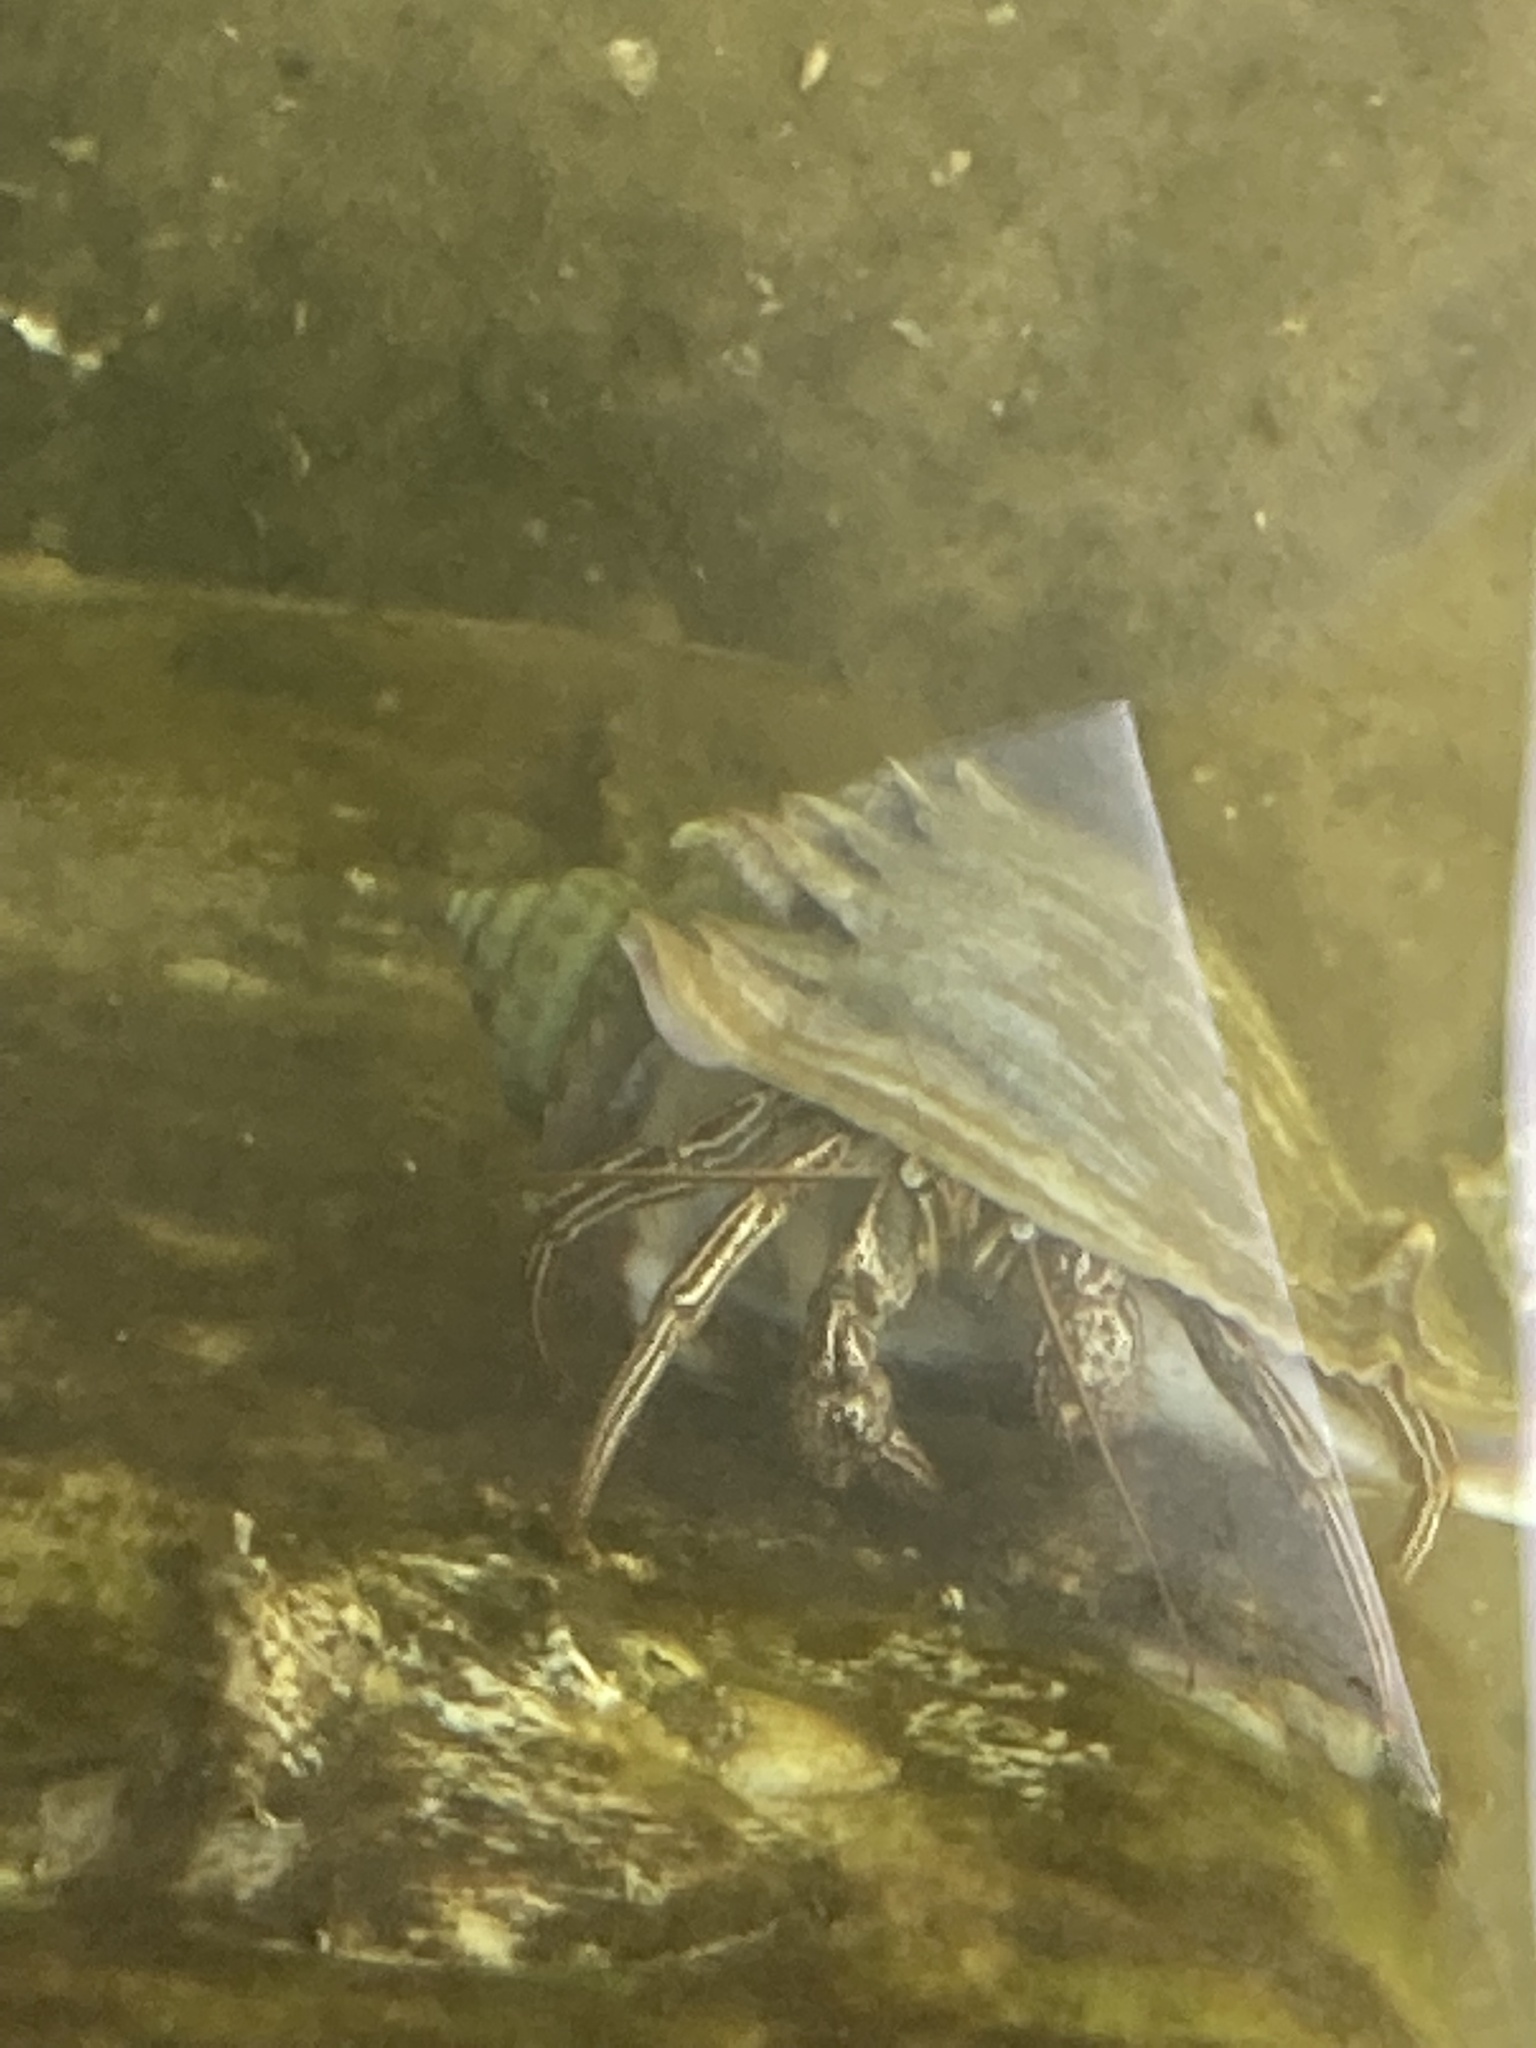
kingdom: Animalia
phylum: Arthropoda
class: Malacostraca
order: Decapoda
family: Diogenidae
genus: Clibanarius
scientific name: Clibanarius vittatus
